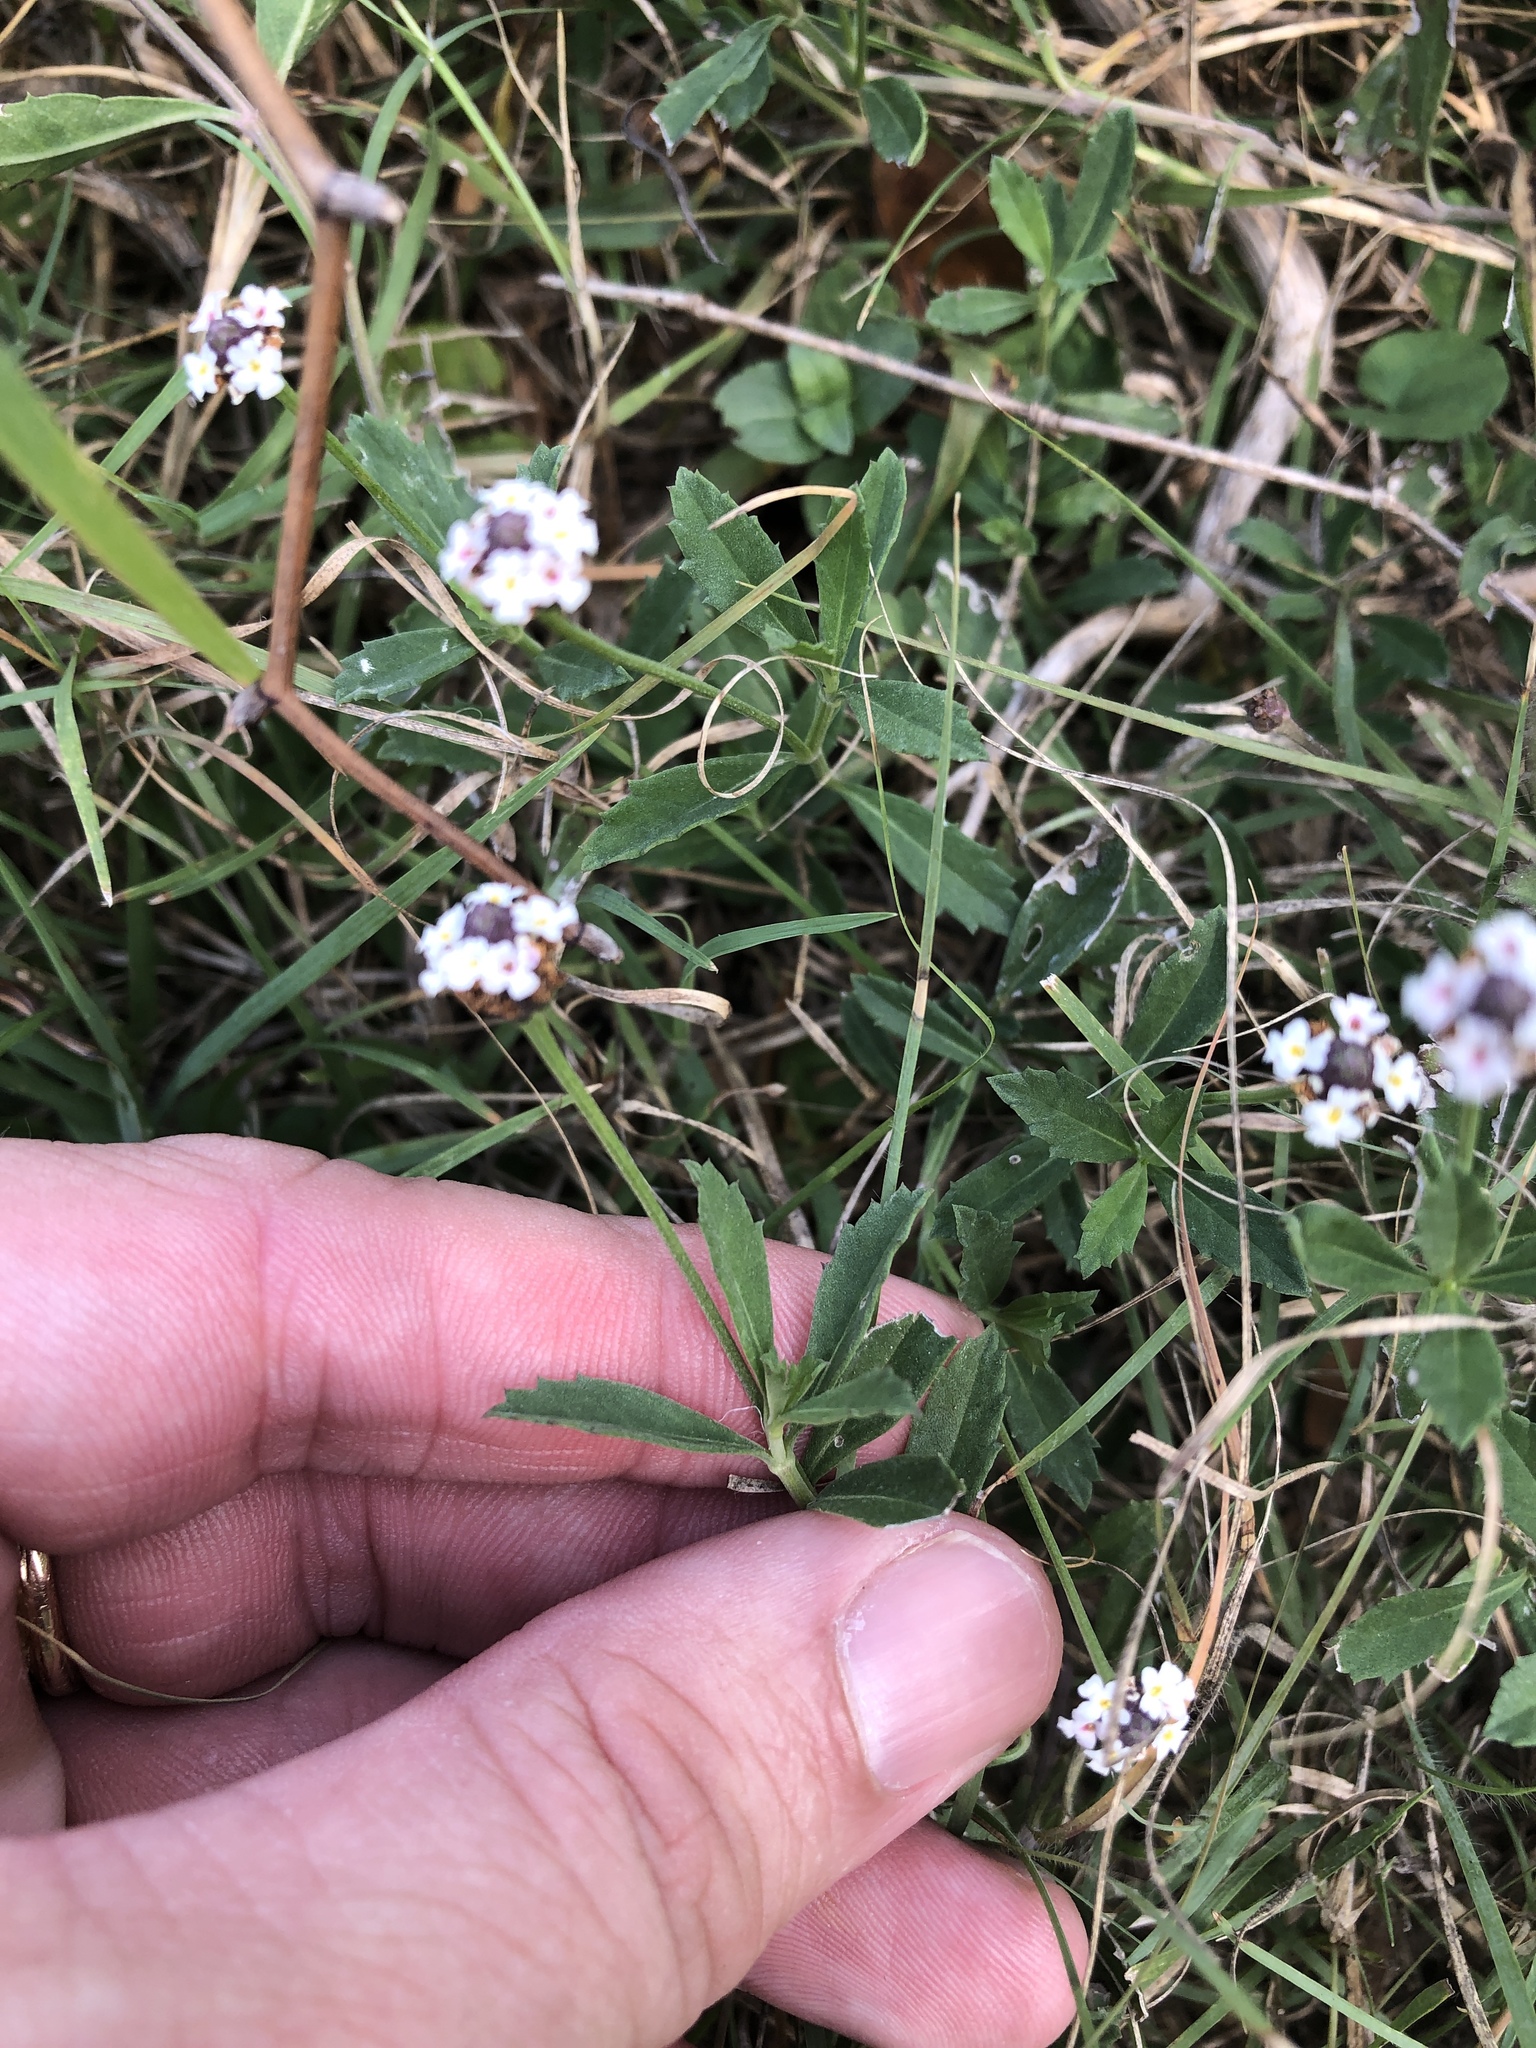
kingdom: Plantae
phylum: Tracheophyta
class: Magnoliopsida
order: Lamiales
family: Verbenaceae
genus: Phyla
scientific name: Phyla nodiflora
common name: Frogfruit
